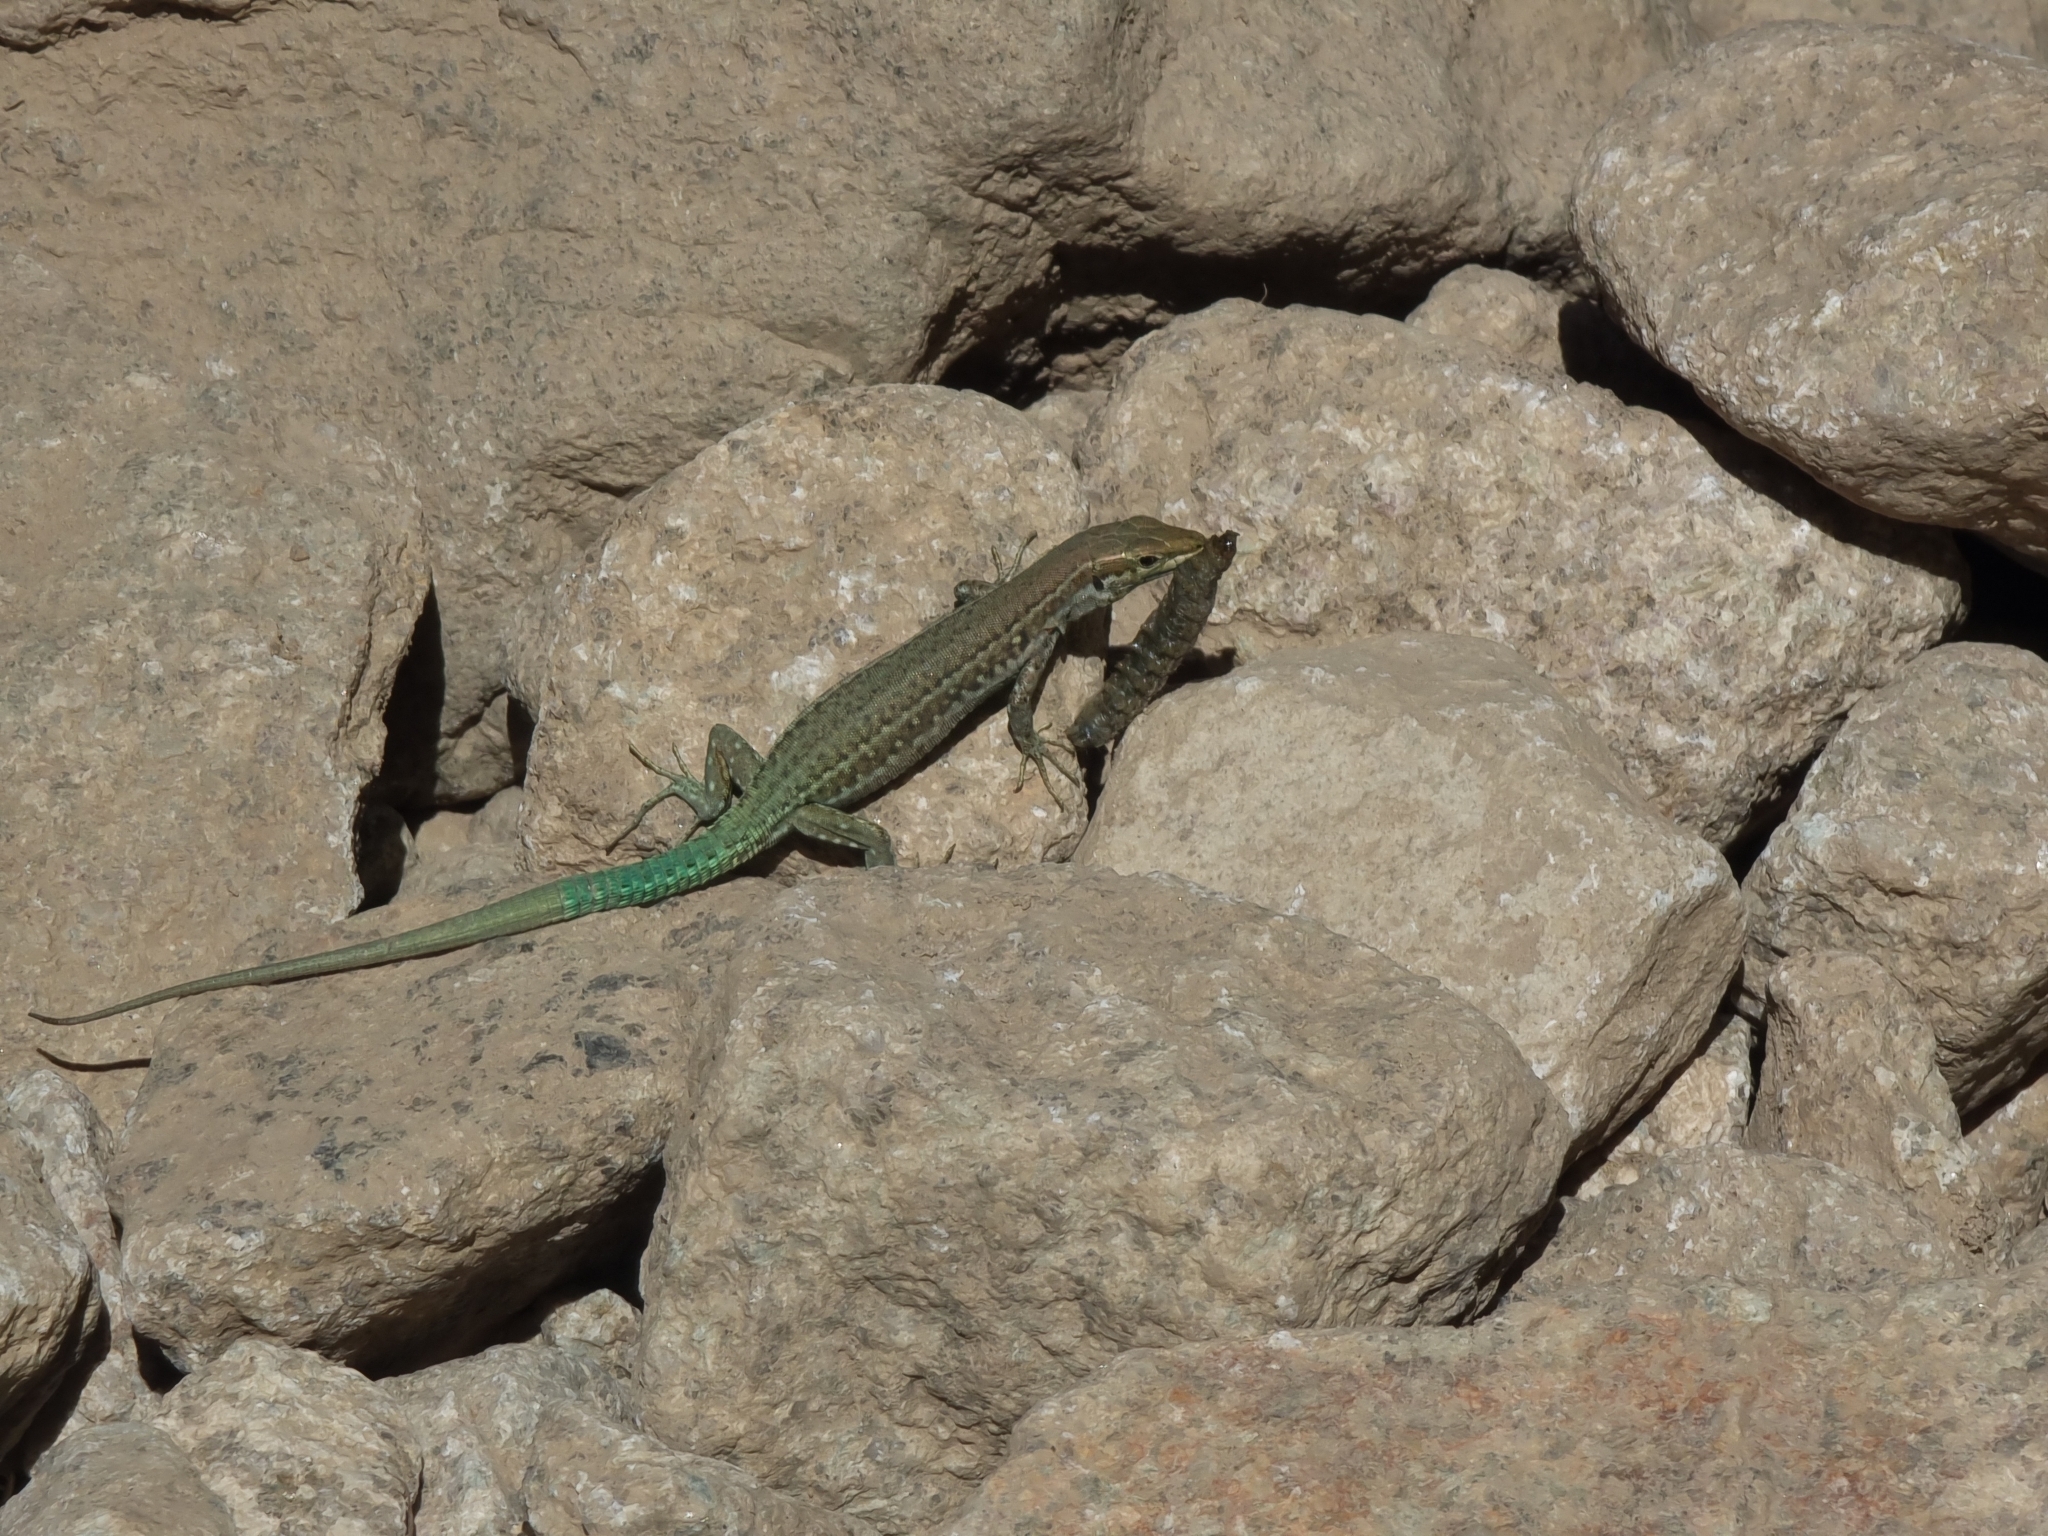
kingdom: Animalia
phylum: Chordata
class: Squamata
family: Lacertidae
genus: Podarcis
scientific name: Podarcis tiliguerta
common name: Tyrrhenian wall lizard
